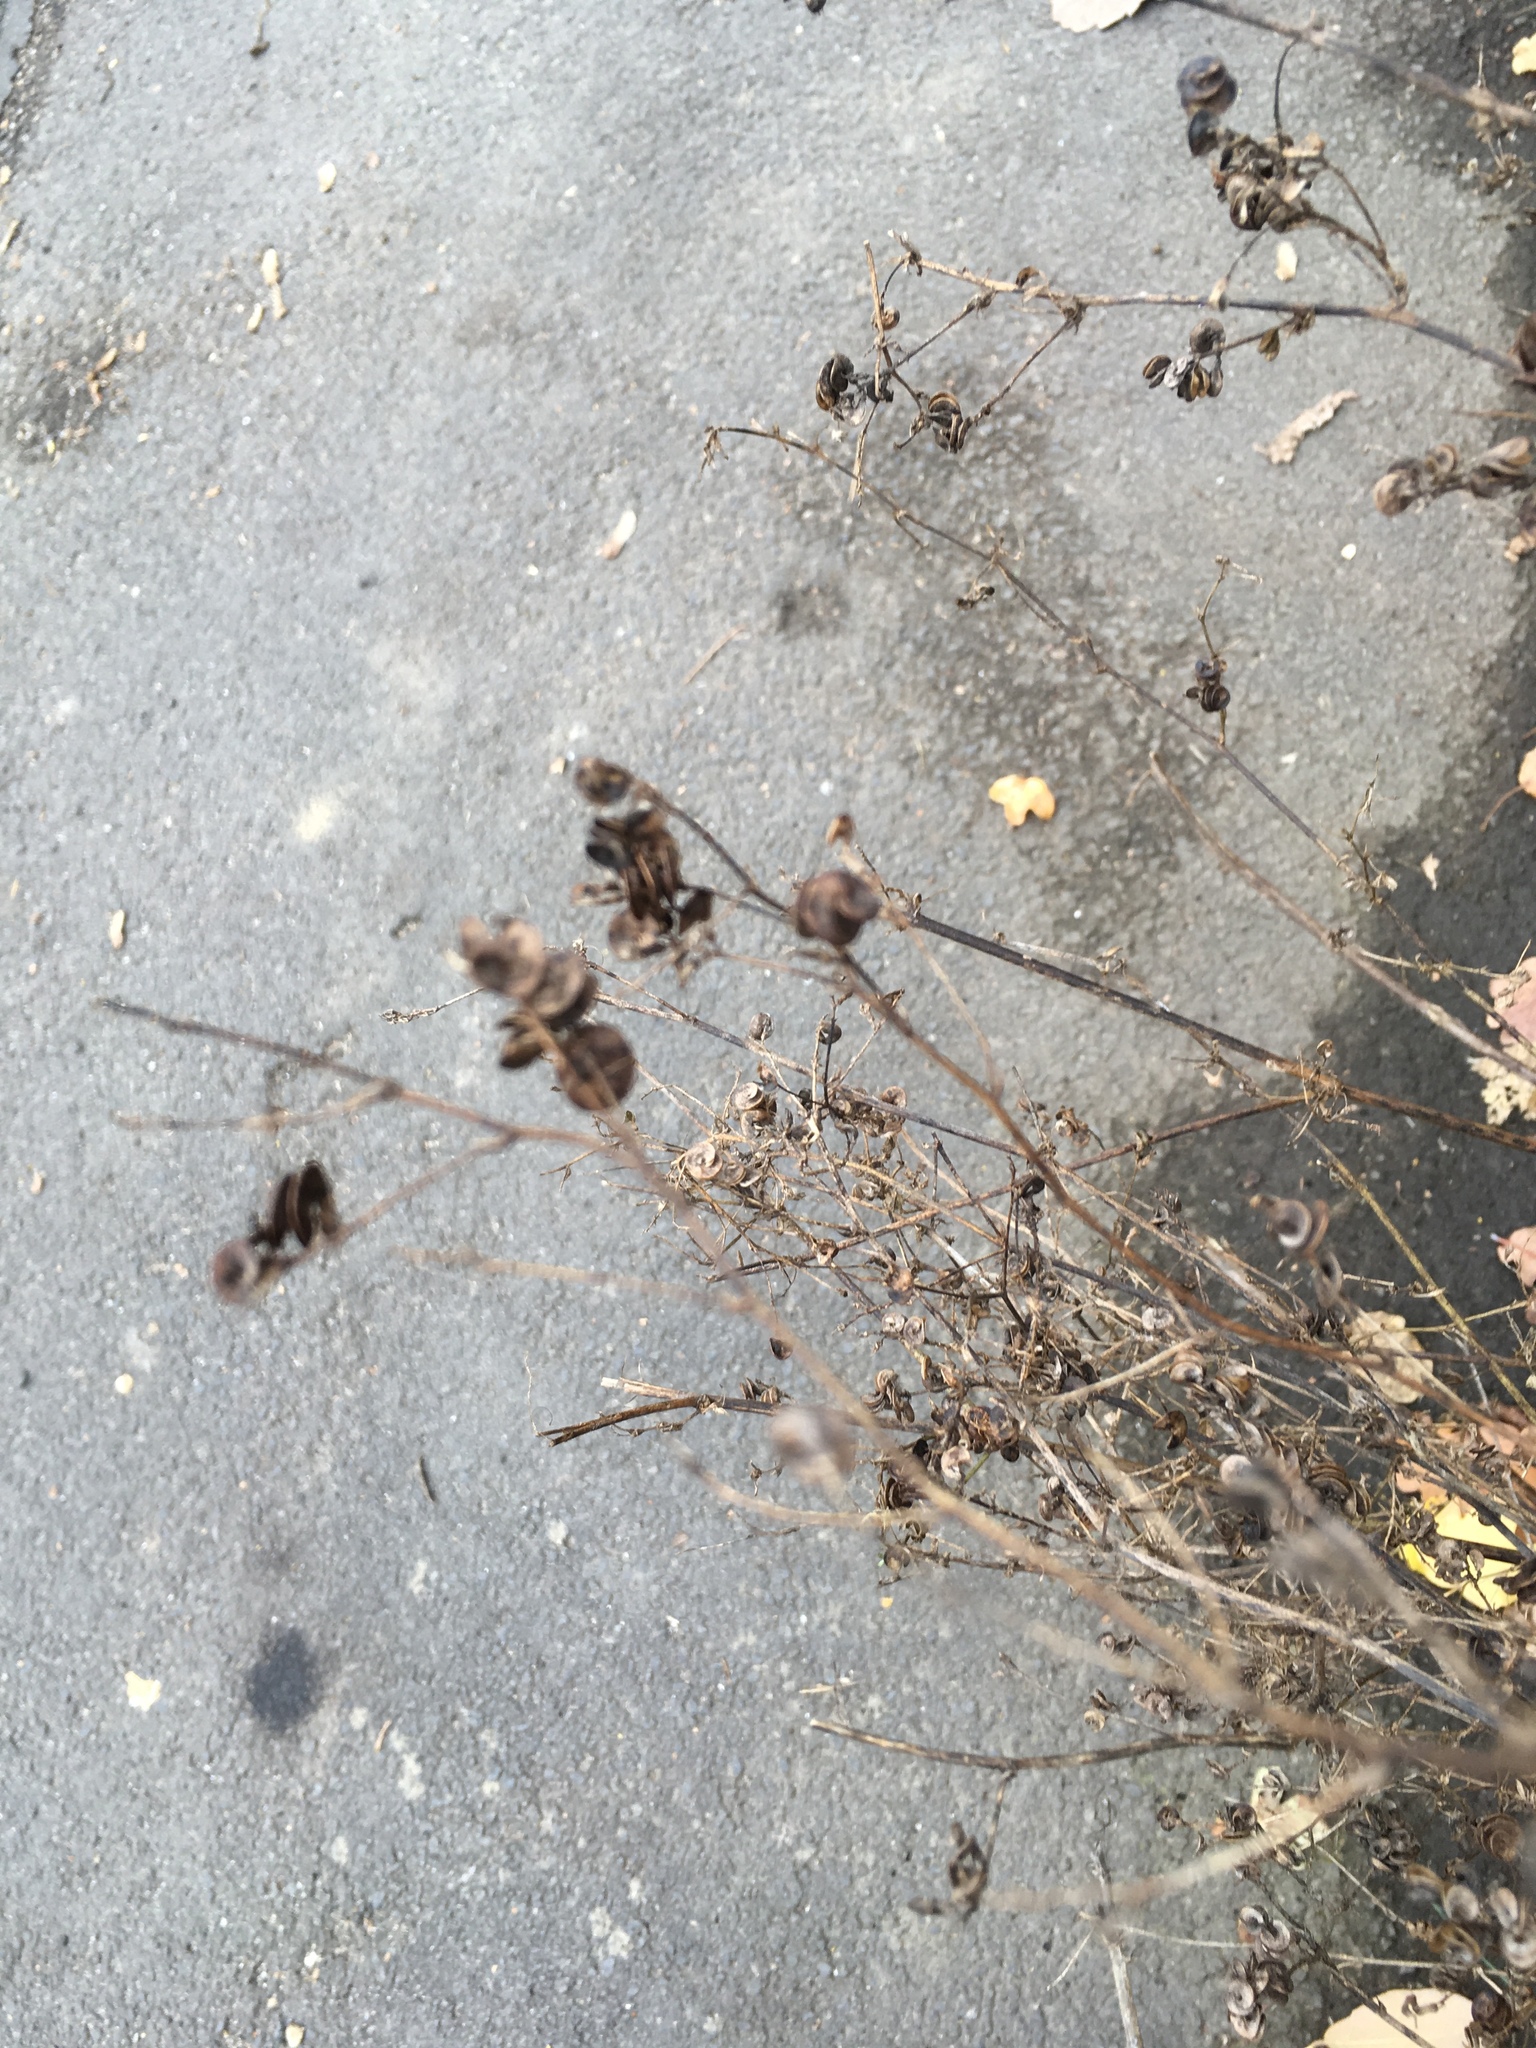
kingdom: Plantae
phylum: Tracheophyta
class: Magnoliopsida
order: Fabales
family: Fabaceae
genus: Medicago
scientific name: Medicago varia
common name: Sand lucerne
